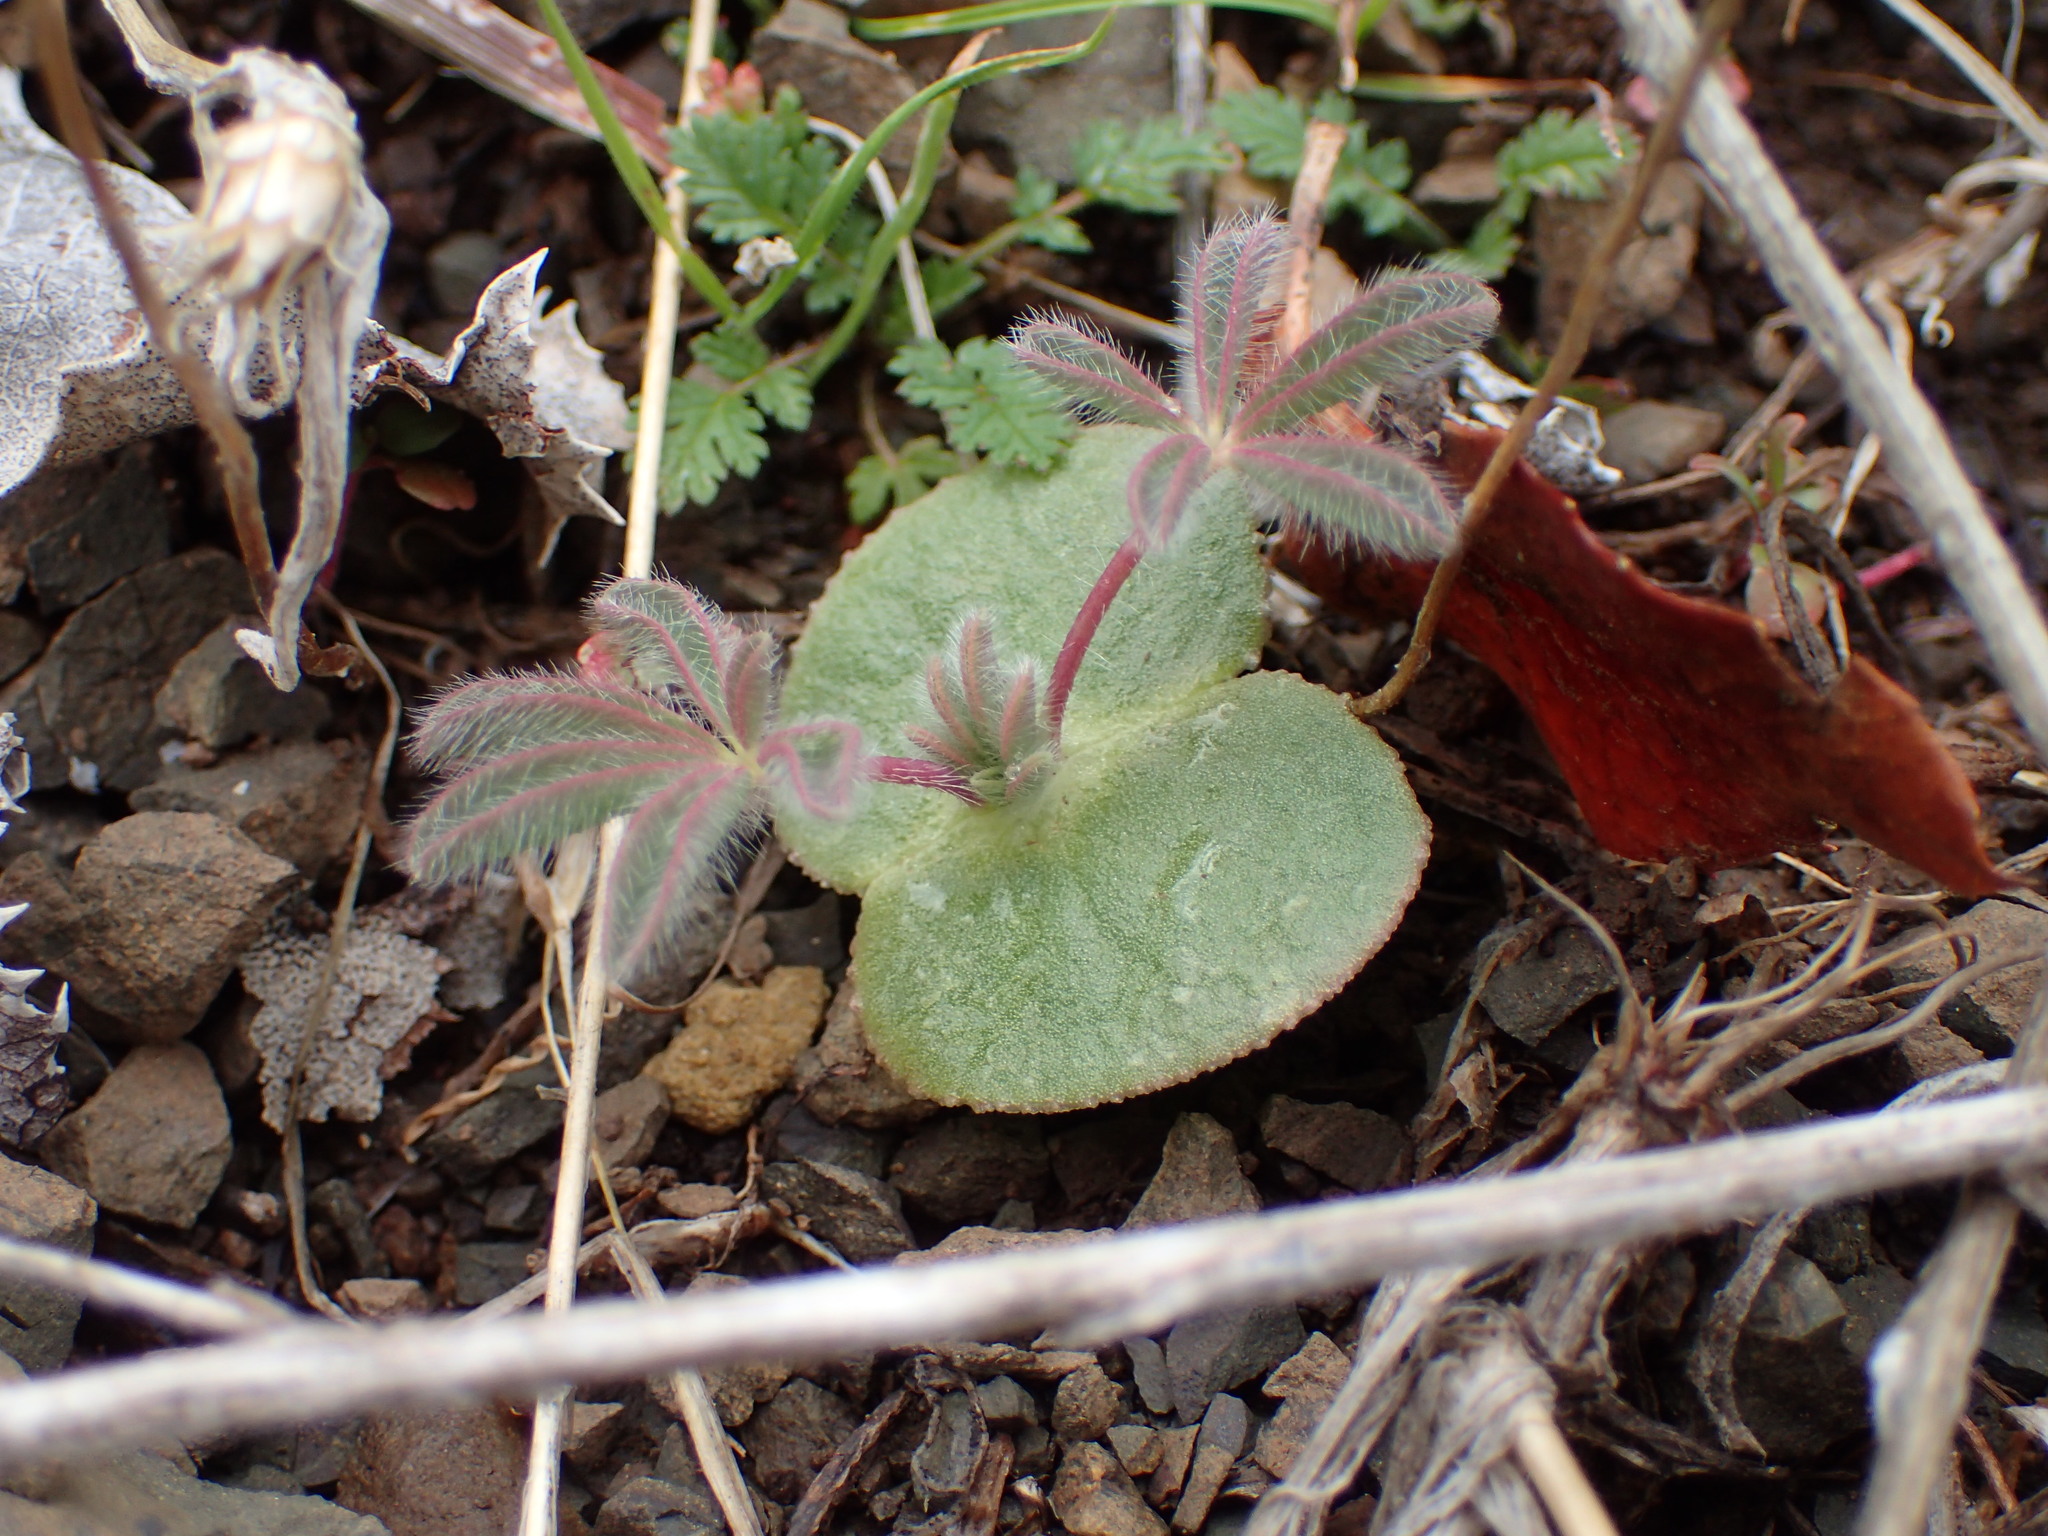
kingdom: Plantae
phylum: Tracheophyta
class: Magnoliopsida
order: Fabales
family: Fabaceae
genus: Lupinus
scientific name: Lupinus microcarpus
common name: Chick lupine
